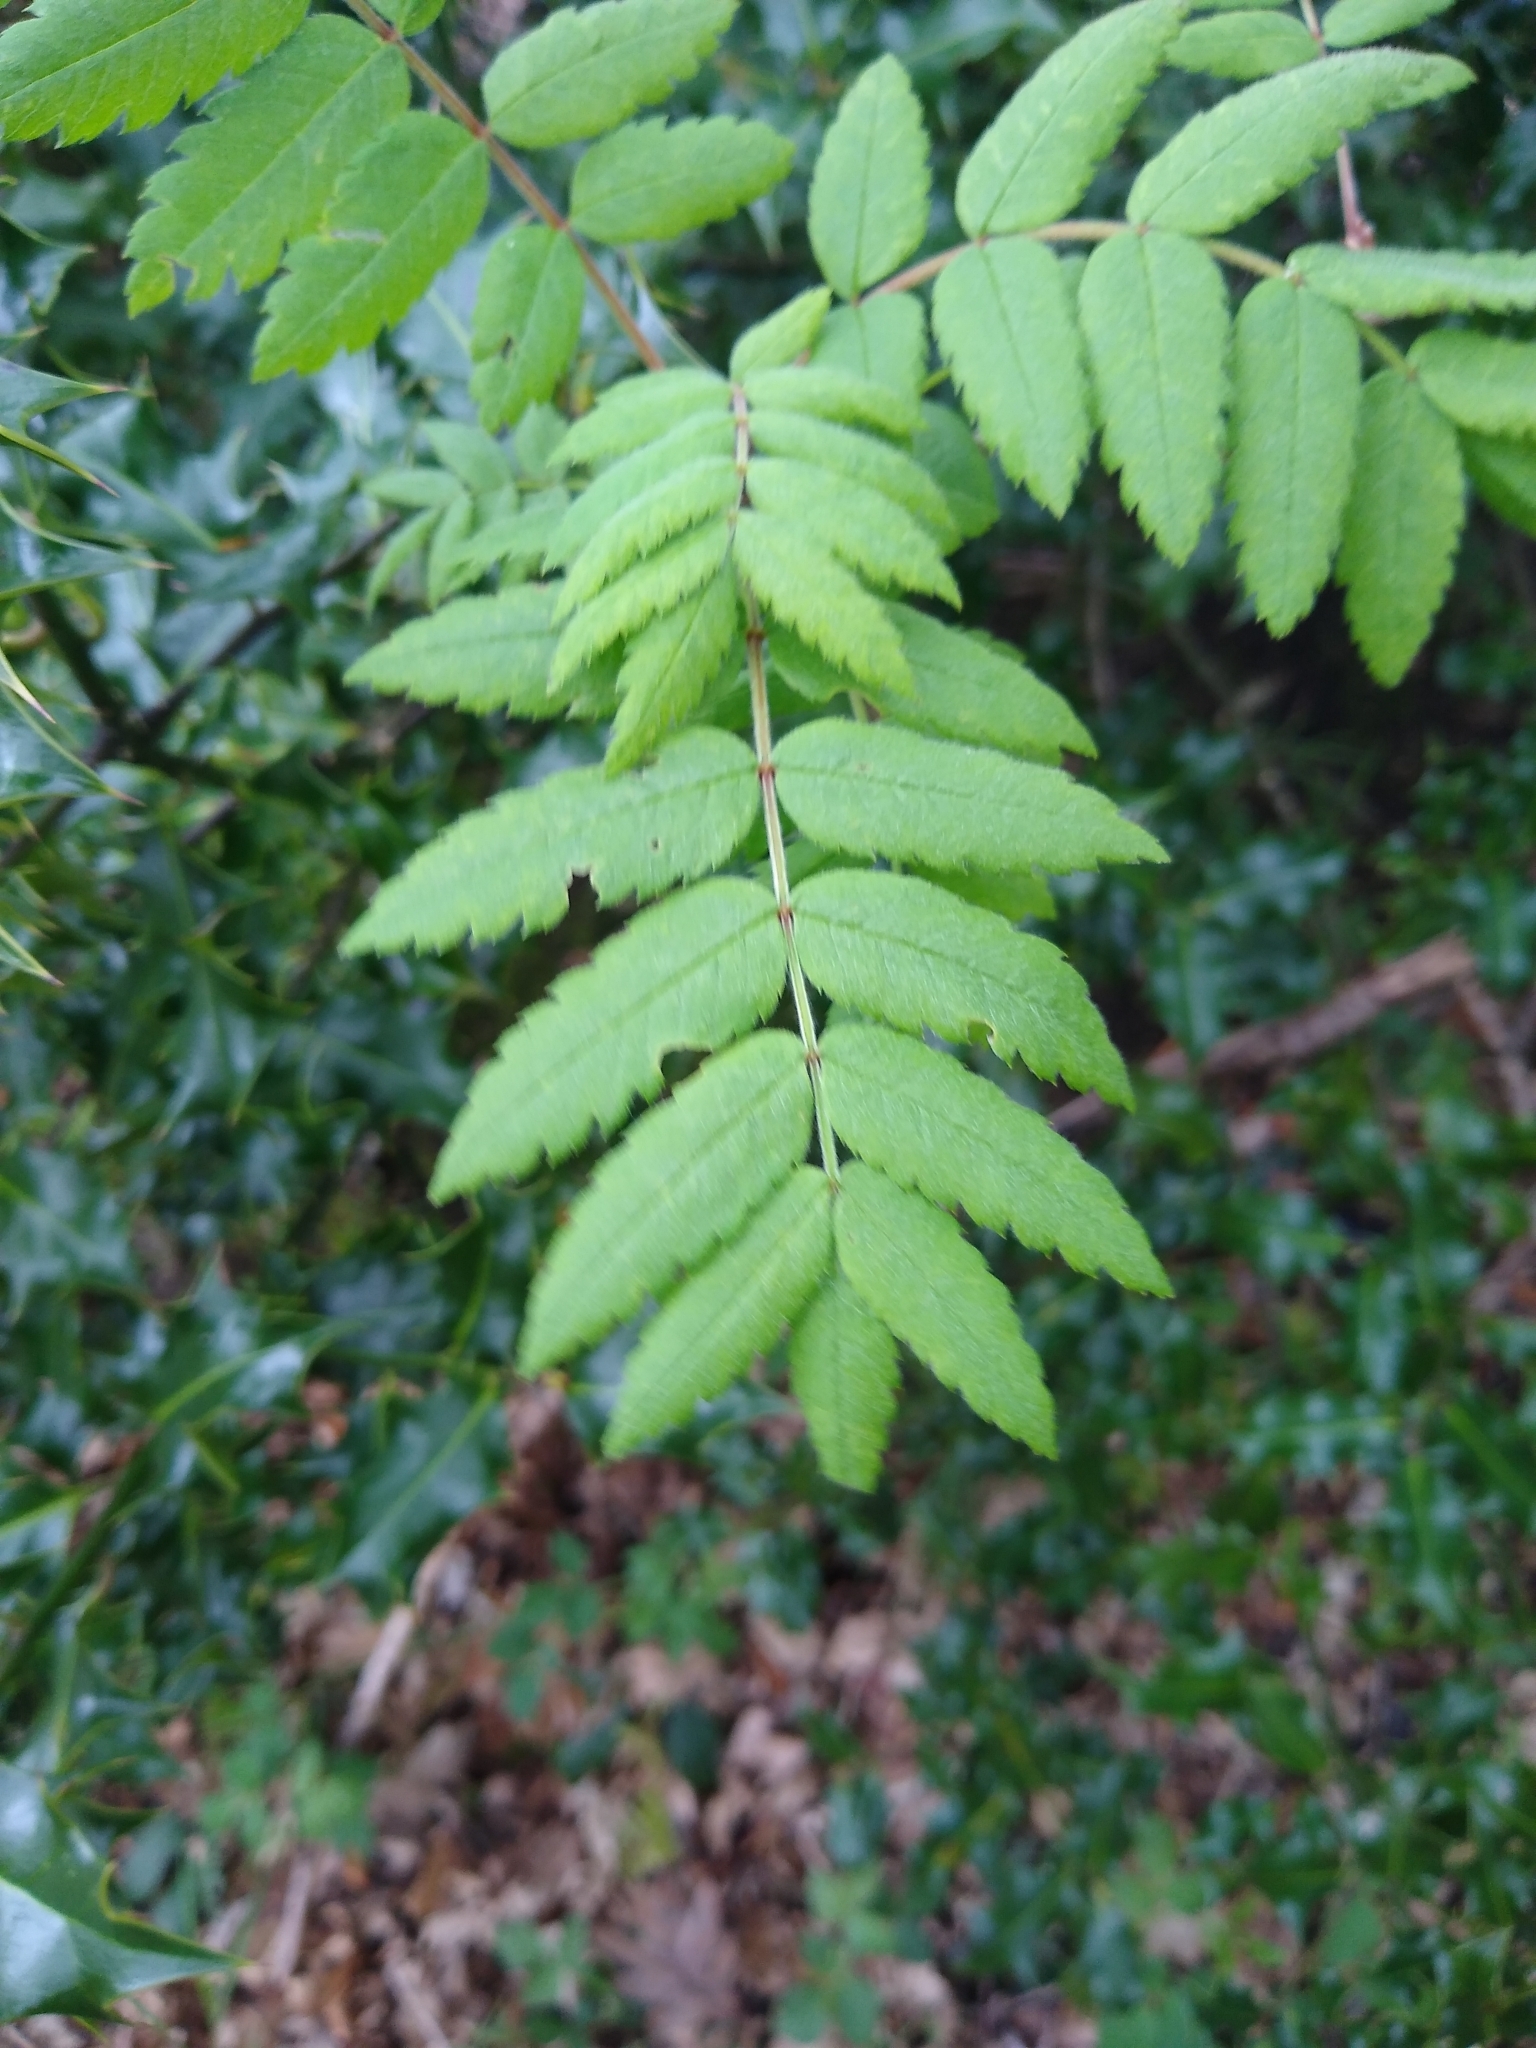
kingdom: Plantae
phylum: Tracheophyta
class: Magnoliopsida
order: Rosales
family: Rosaceae
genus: Sorbus
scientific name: Sorbus aucuparia
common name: Rowan
